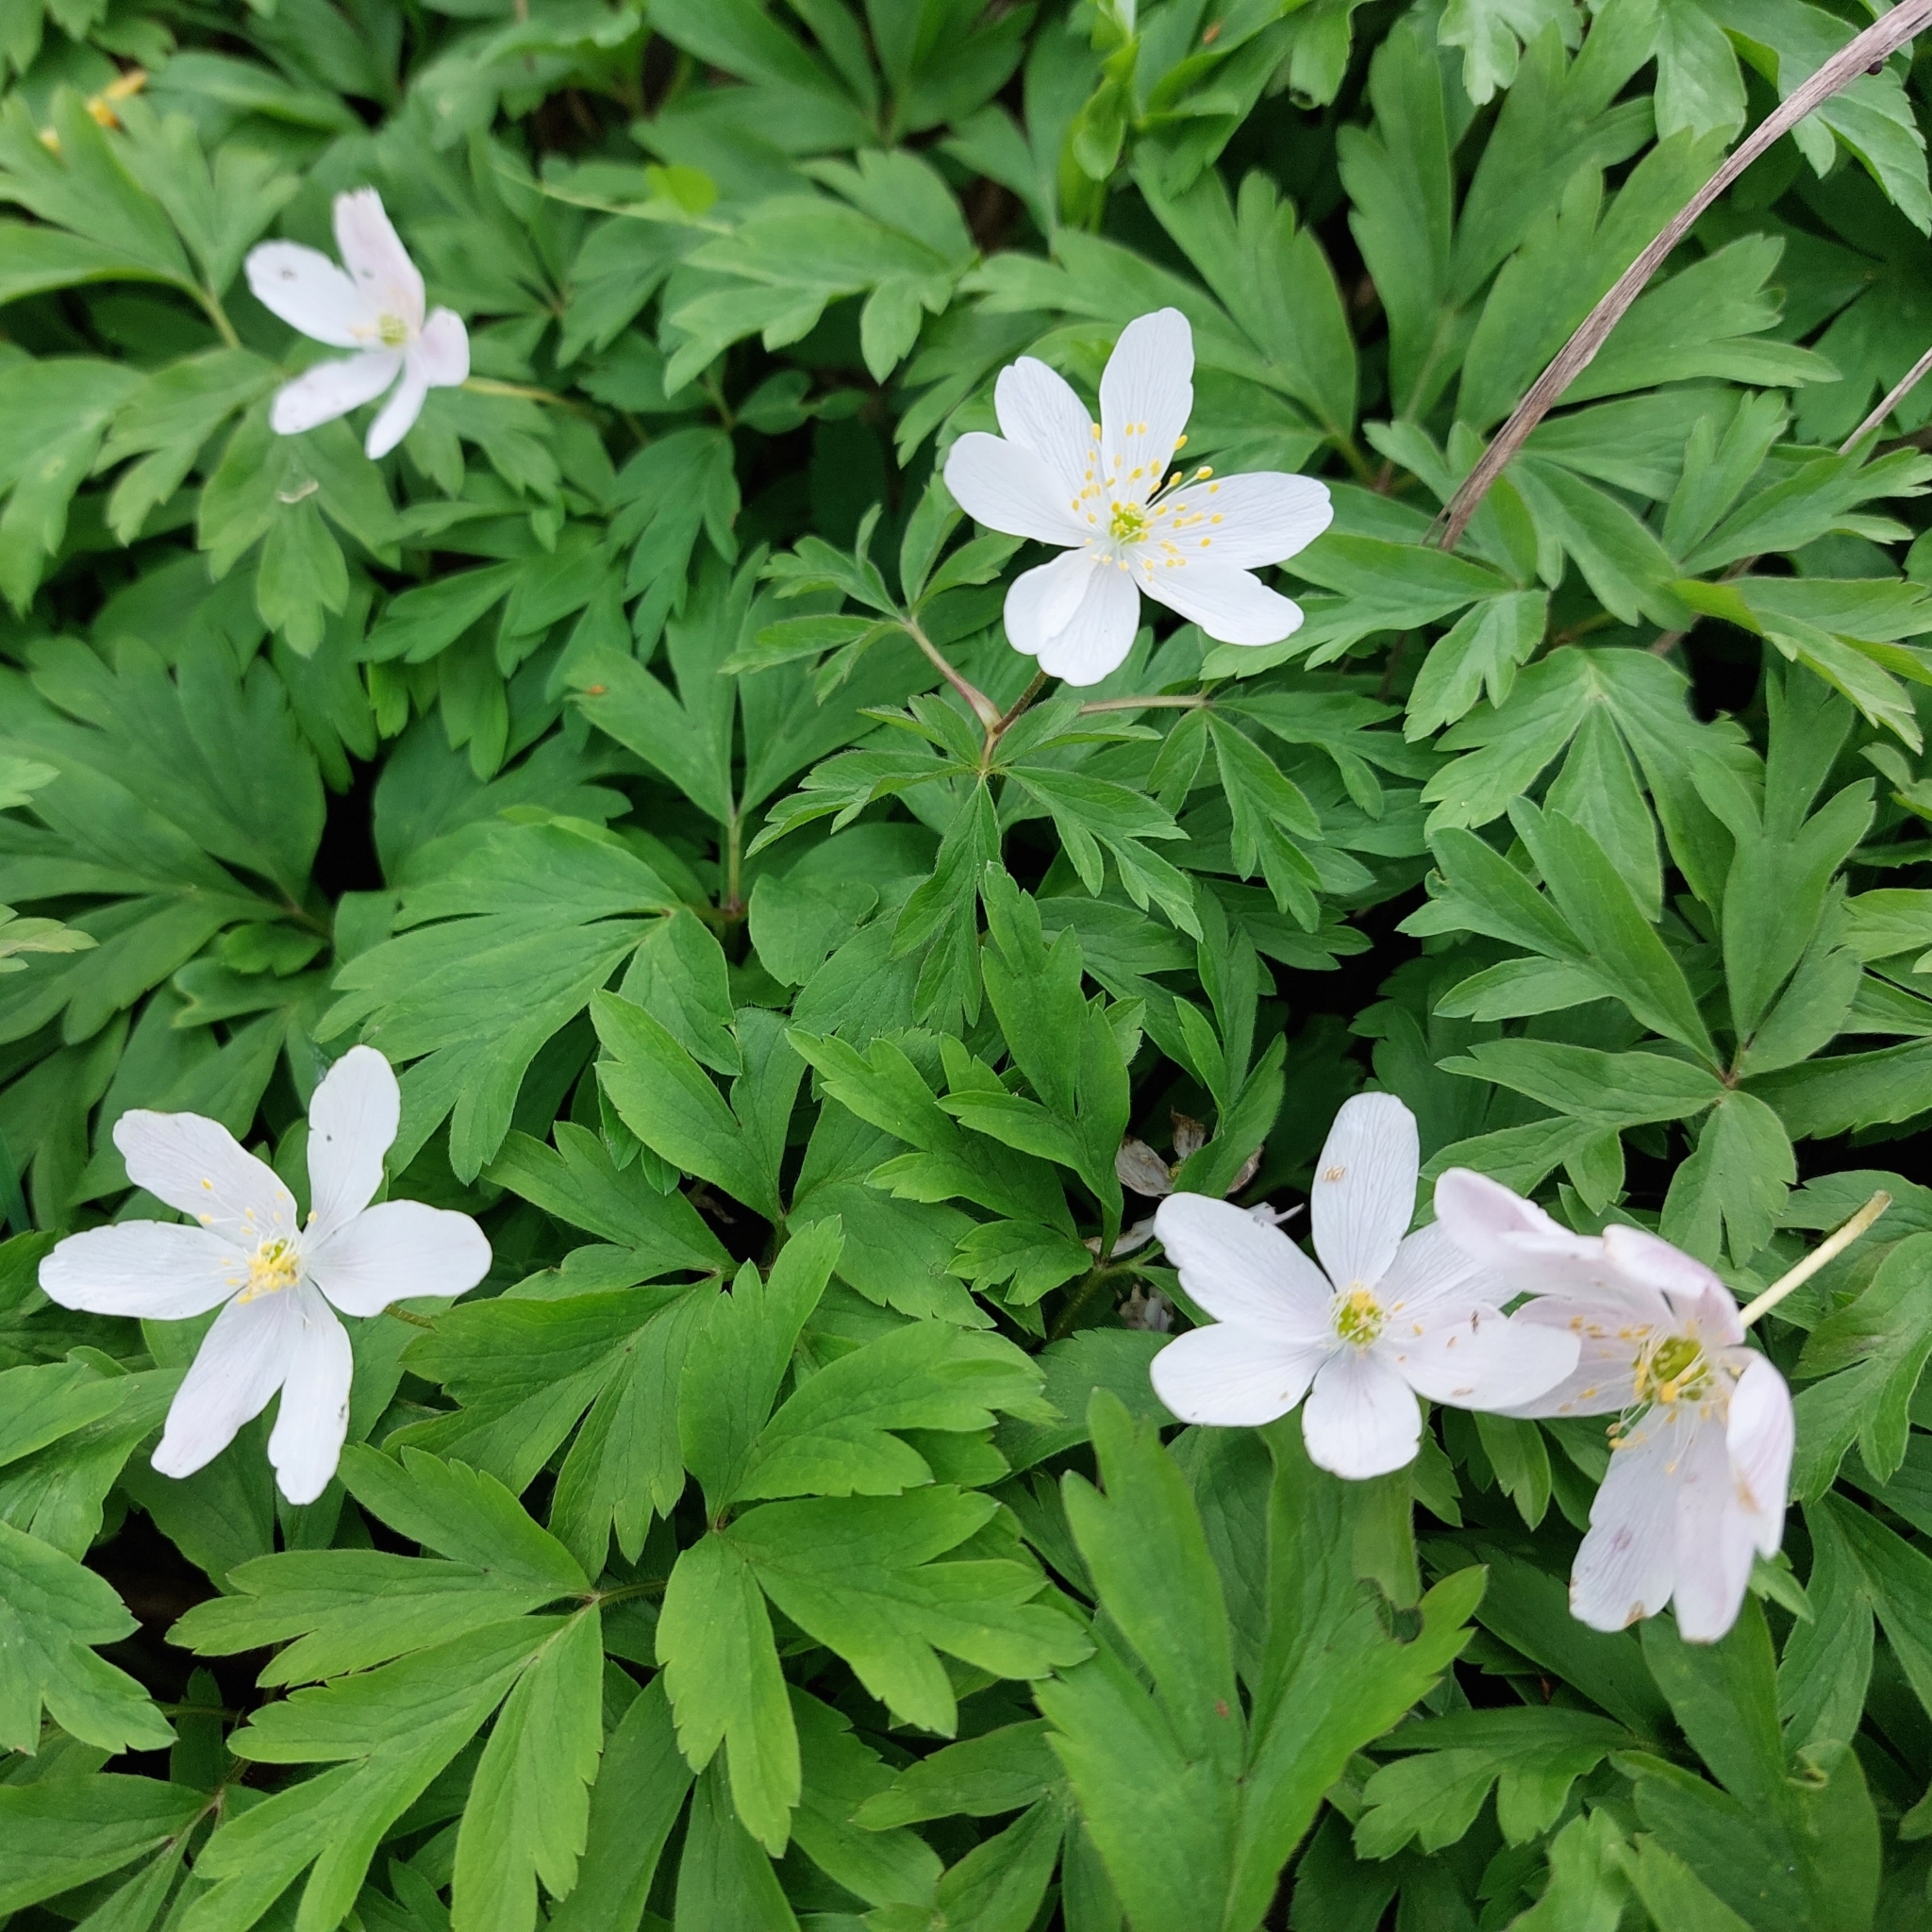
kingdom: Plantae
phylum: Tracheophyta
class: Magnoliopsida
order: Ranunculales
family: Ranunculaceae
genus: Anemone
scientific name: Anemone nemorosa
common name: Wood anemone
